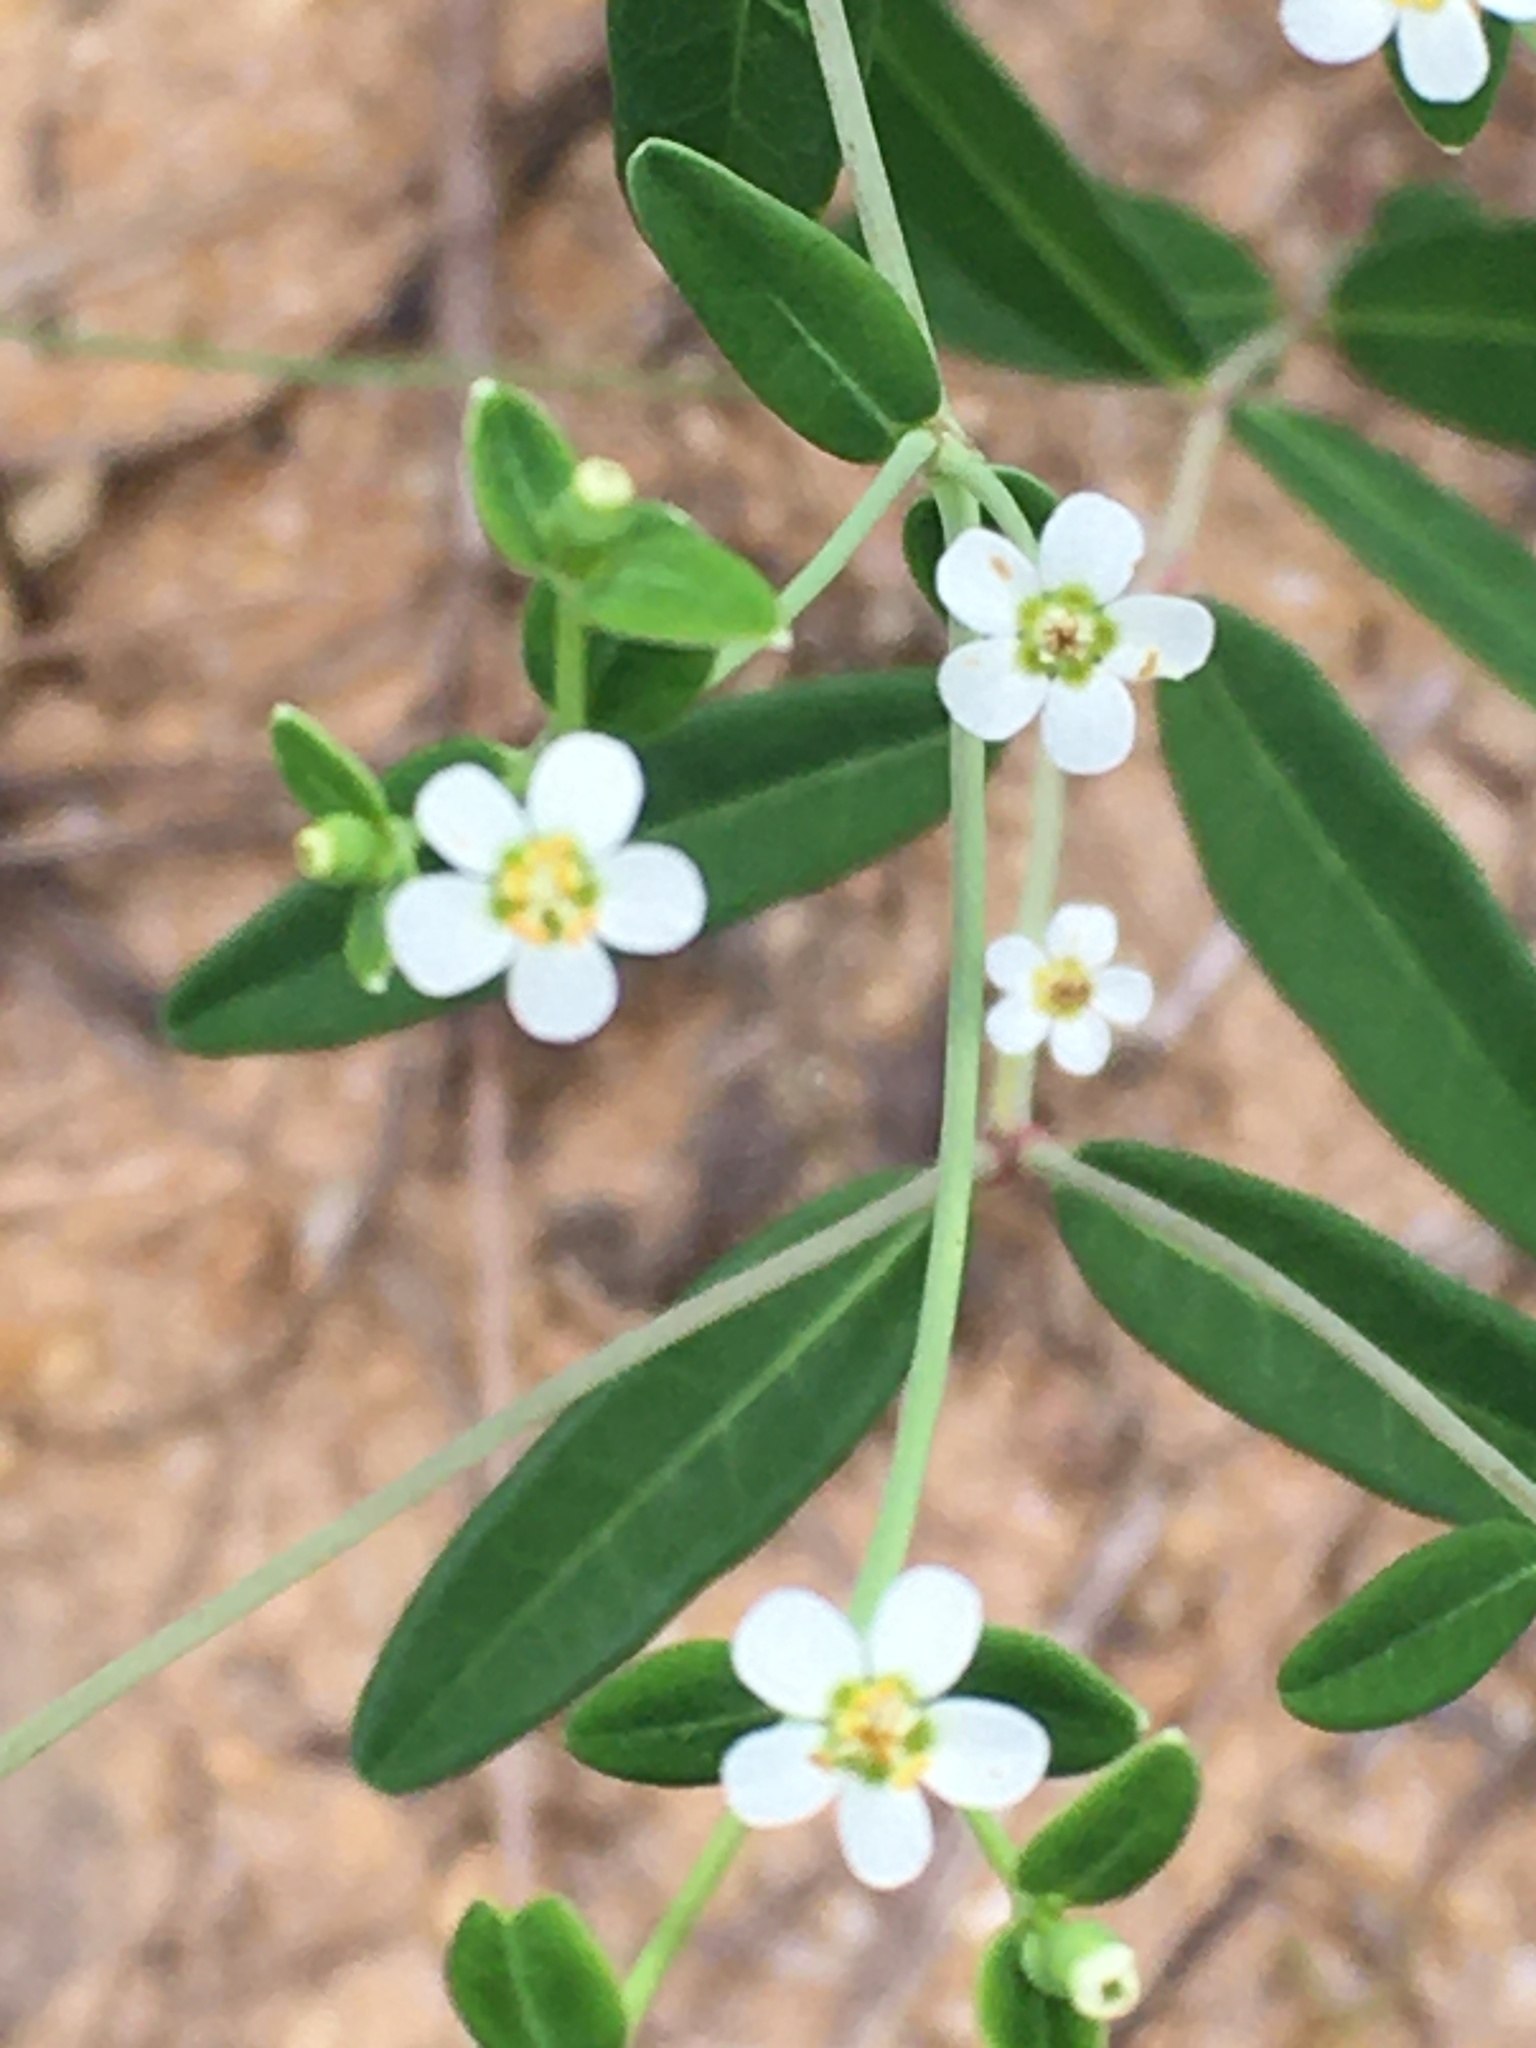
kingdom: Plantae
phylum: Tracheophyta
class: Magnoliopsida
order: Malpighiales
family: Euphorbiaceae
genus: Euphorbia
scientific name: Euphorbia corollata
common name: Flowering spurge
